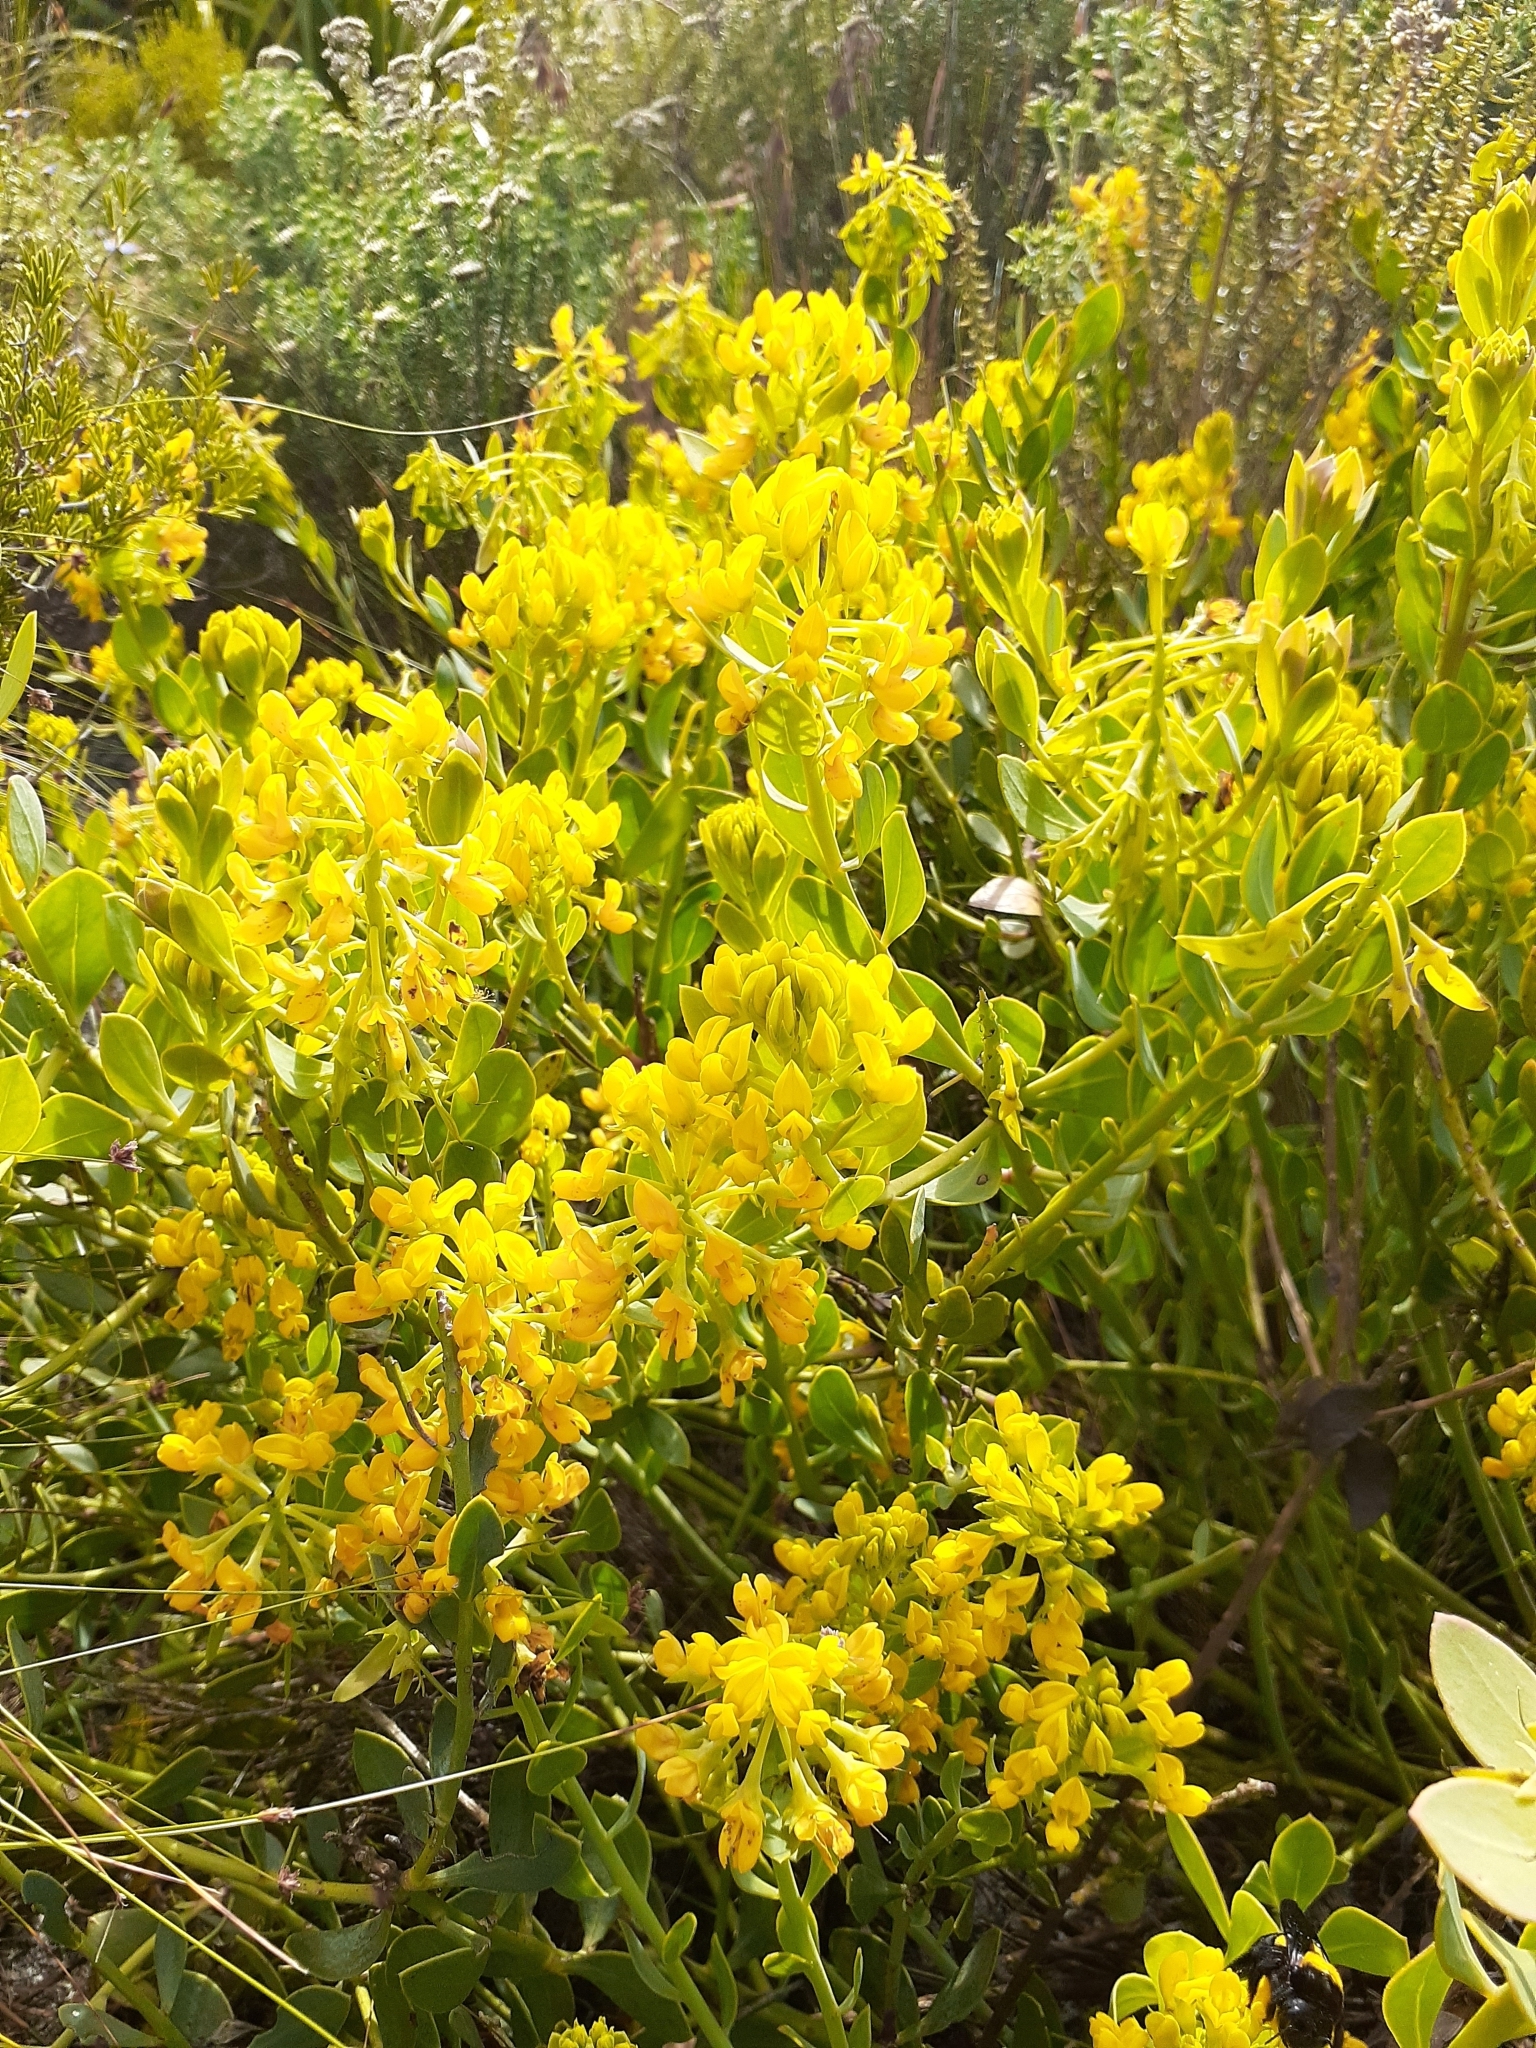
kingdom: Plantae
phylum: Tracheophyta
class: Magnoliopsida
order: Fabales
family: Fabaceae
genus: Rafnia
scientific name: Rafnia capensis
